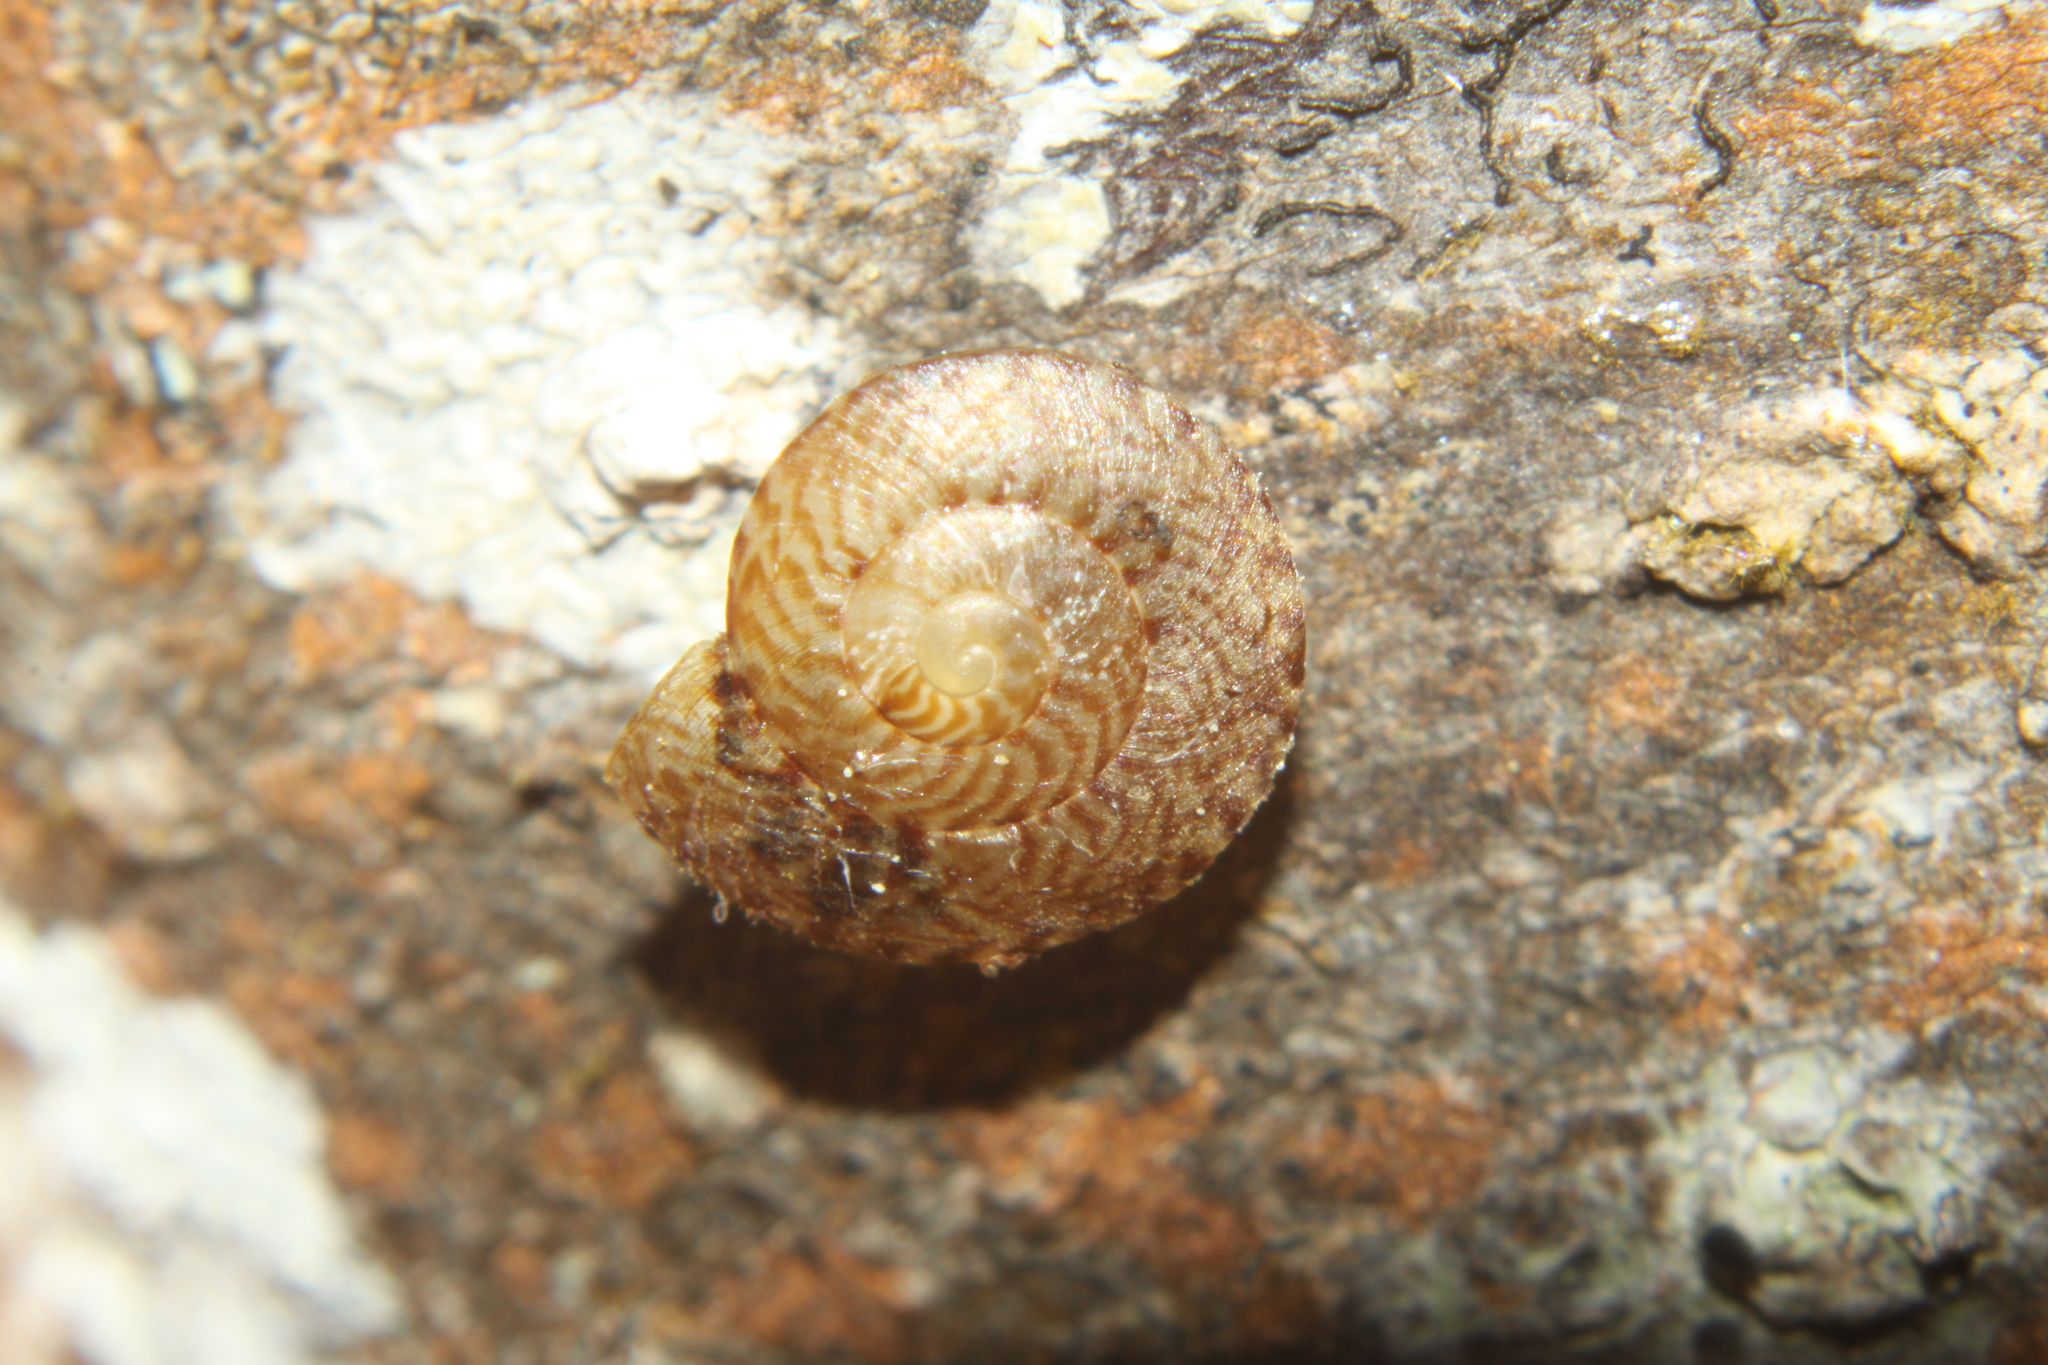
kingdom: Animalia
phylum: Mollusca
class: Gastropoda
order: Stylommatophora
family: Charopidae
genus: Thalassohelix
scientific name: Thalassohelix zelandiae
